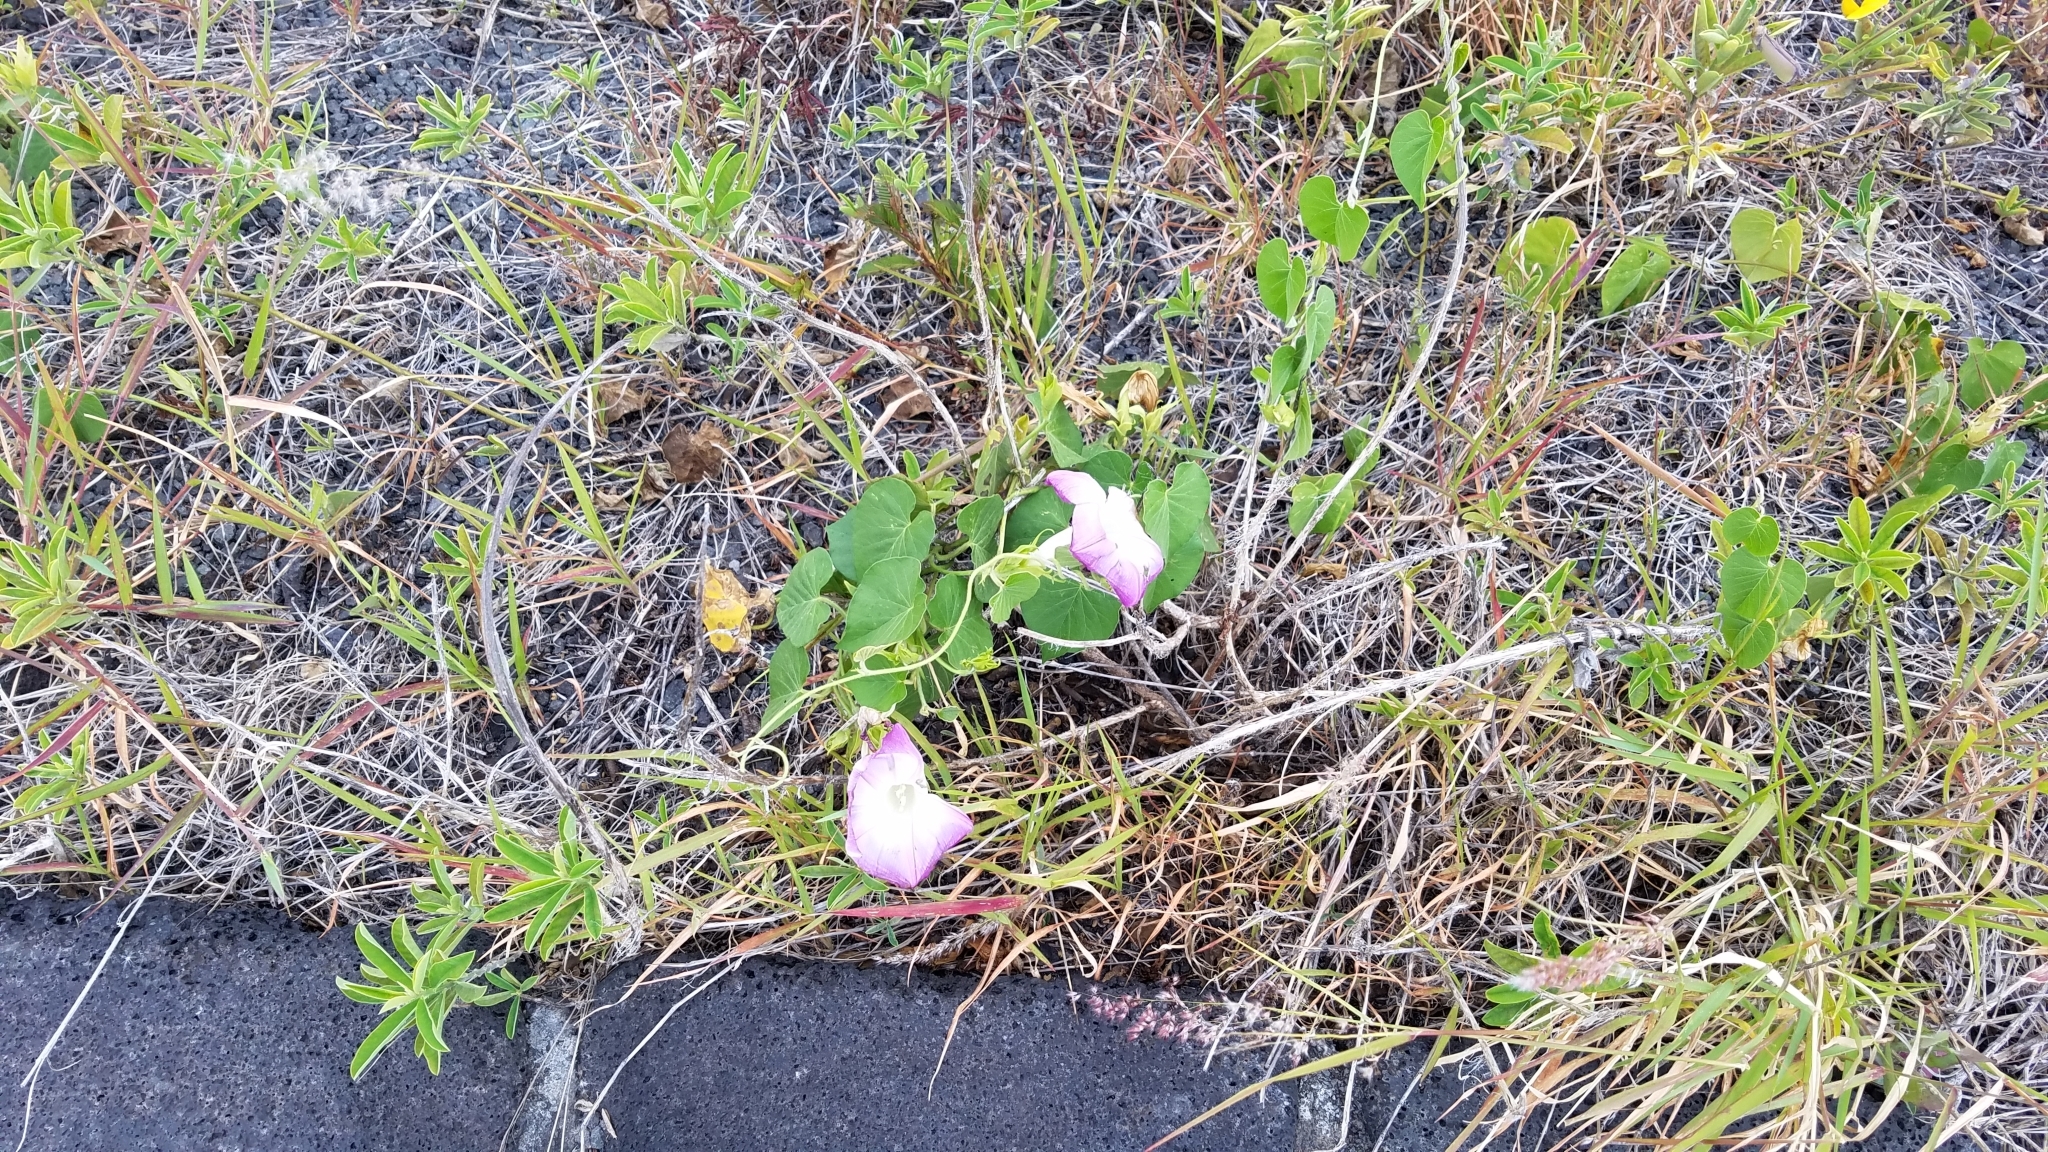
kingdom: Plantae
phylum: Tracheophyta
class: Magnoliopsida
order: Solanales
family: Convolvulaceae
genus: Ipomoea
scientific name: Ipomoea indica
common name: Blue dawnflower
